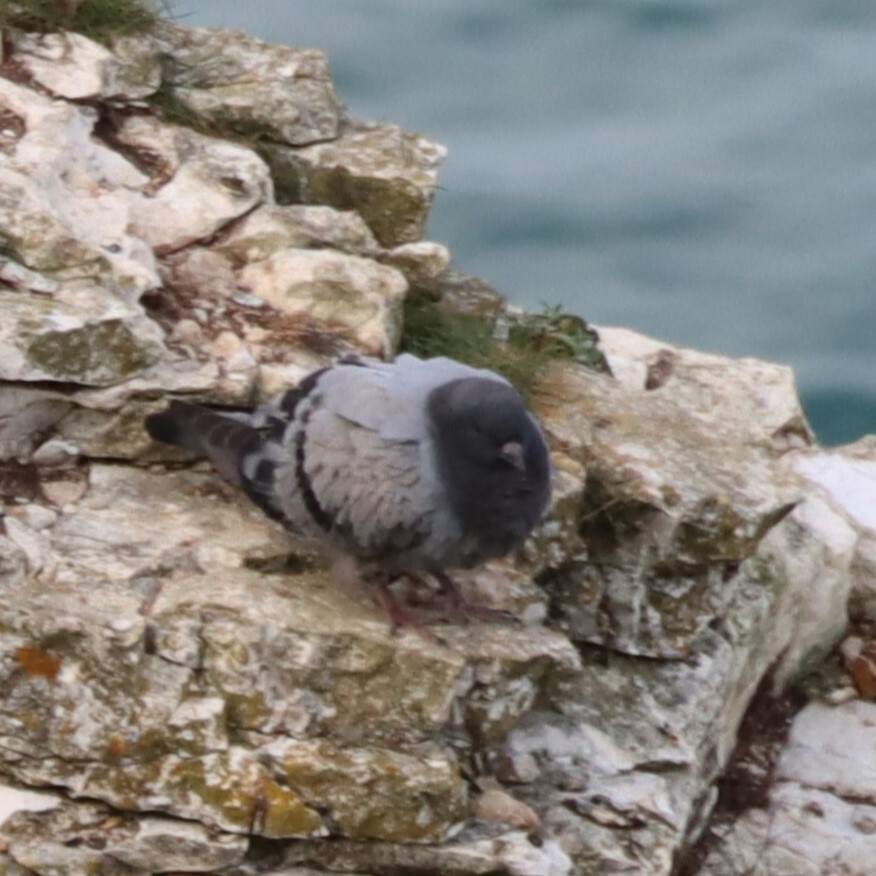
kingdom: Animalia
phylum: Chordata
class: Aves
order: Columbiformes
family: Columbidae
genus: Columba
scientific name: Columba livia
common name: Rock pigeon
